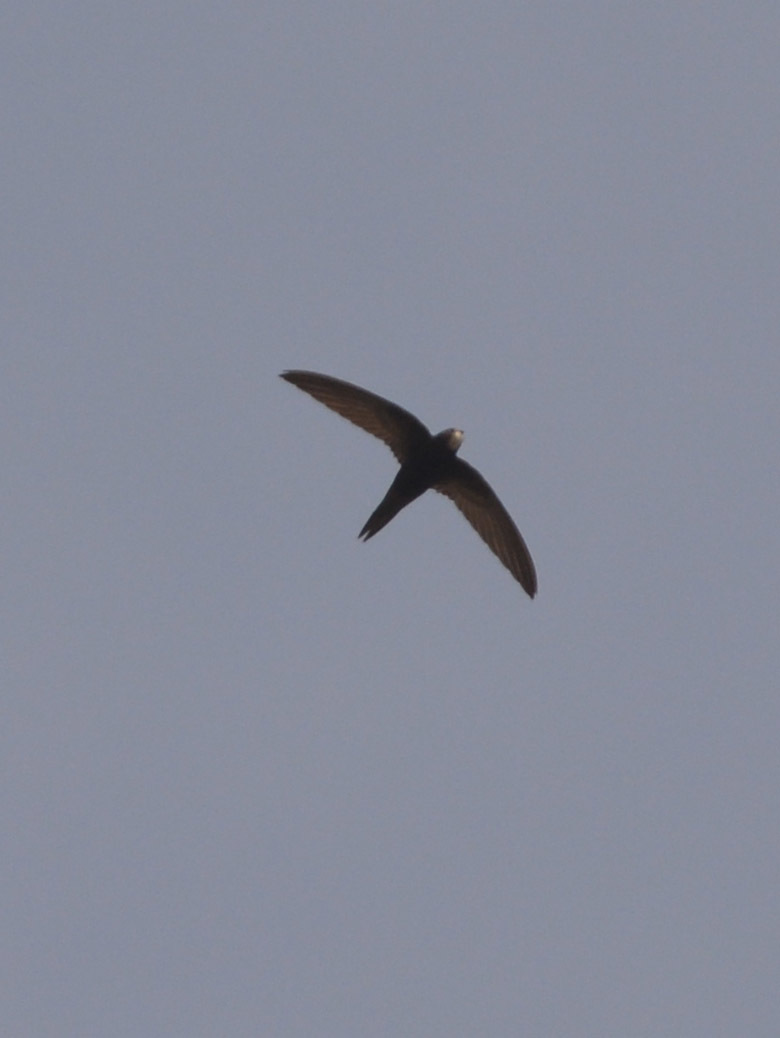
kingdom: Animalia
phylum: Chordata
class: Aves
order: Apodiformes
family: Apodidae
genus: Apus
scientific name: Apus apus
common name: Common swift
